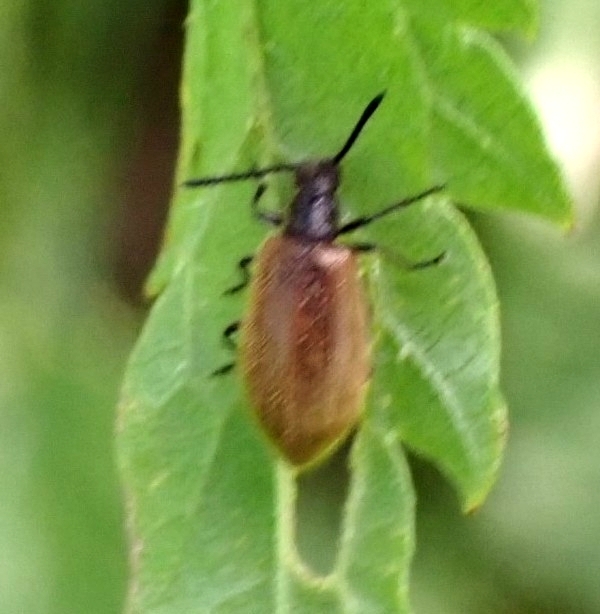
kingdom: Animalia
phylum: Arthropoda
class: Insecta
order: Coleoptera
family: Tenebrionidae
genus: Lagria
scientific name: Lagria hirta
